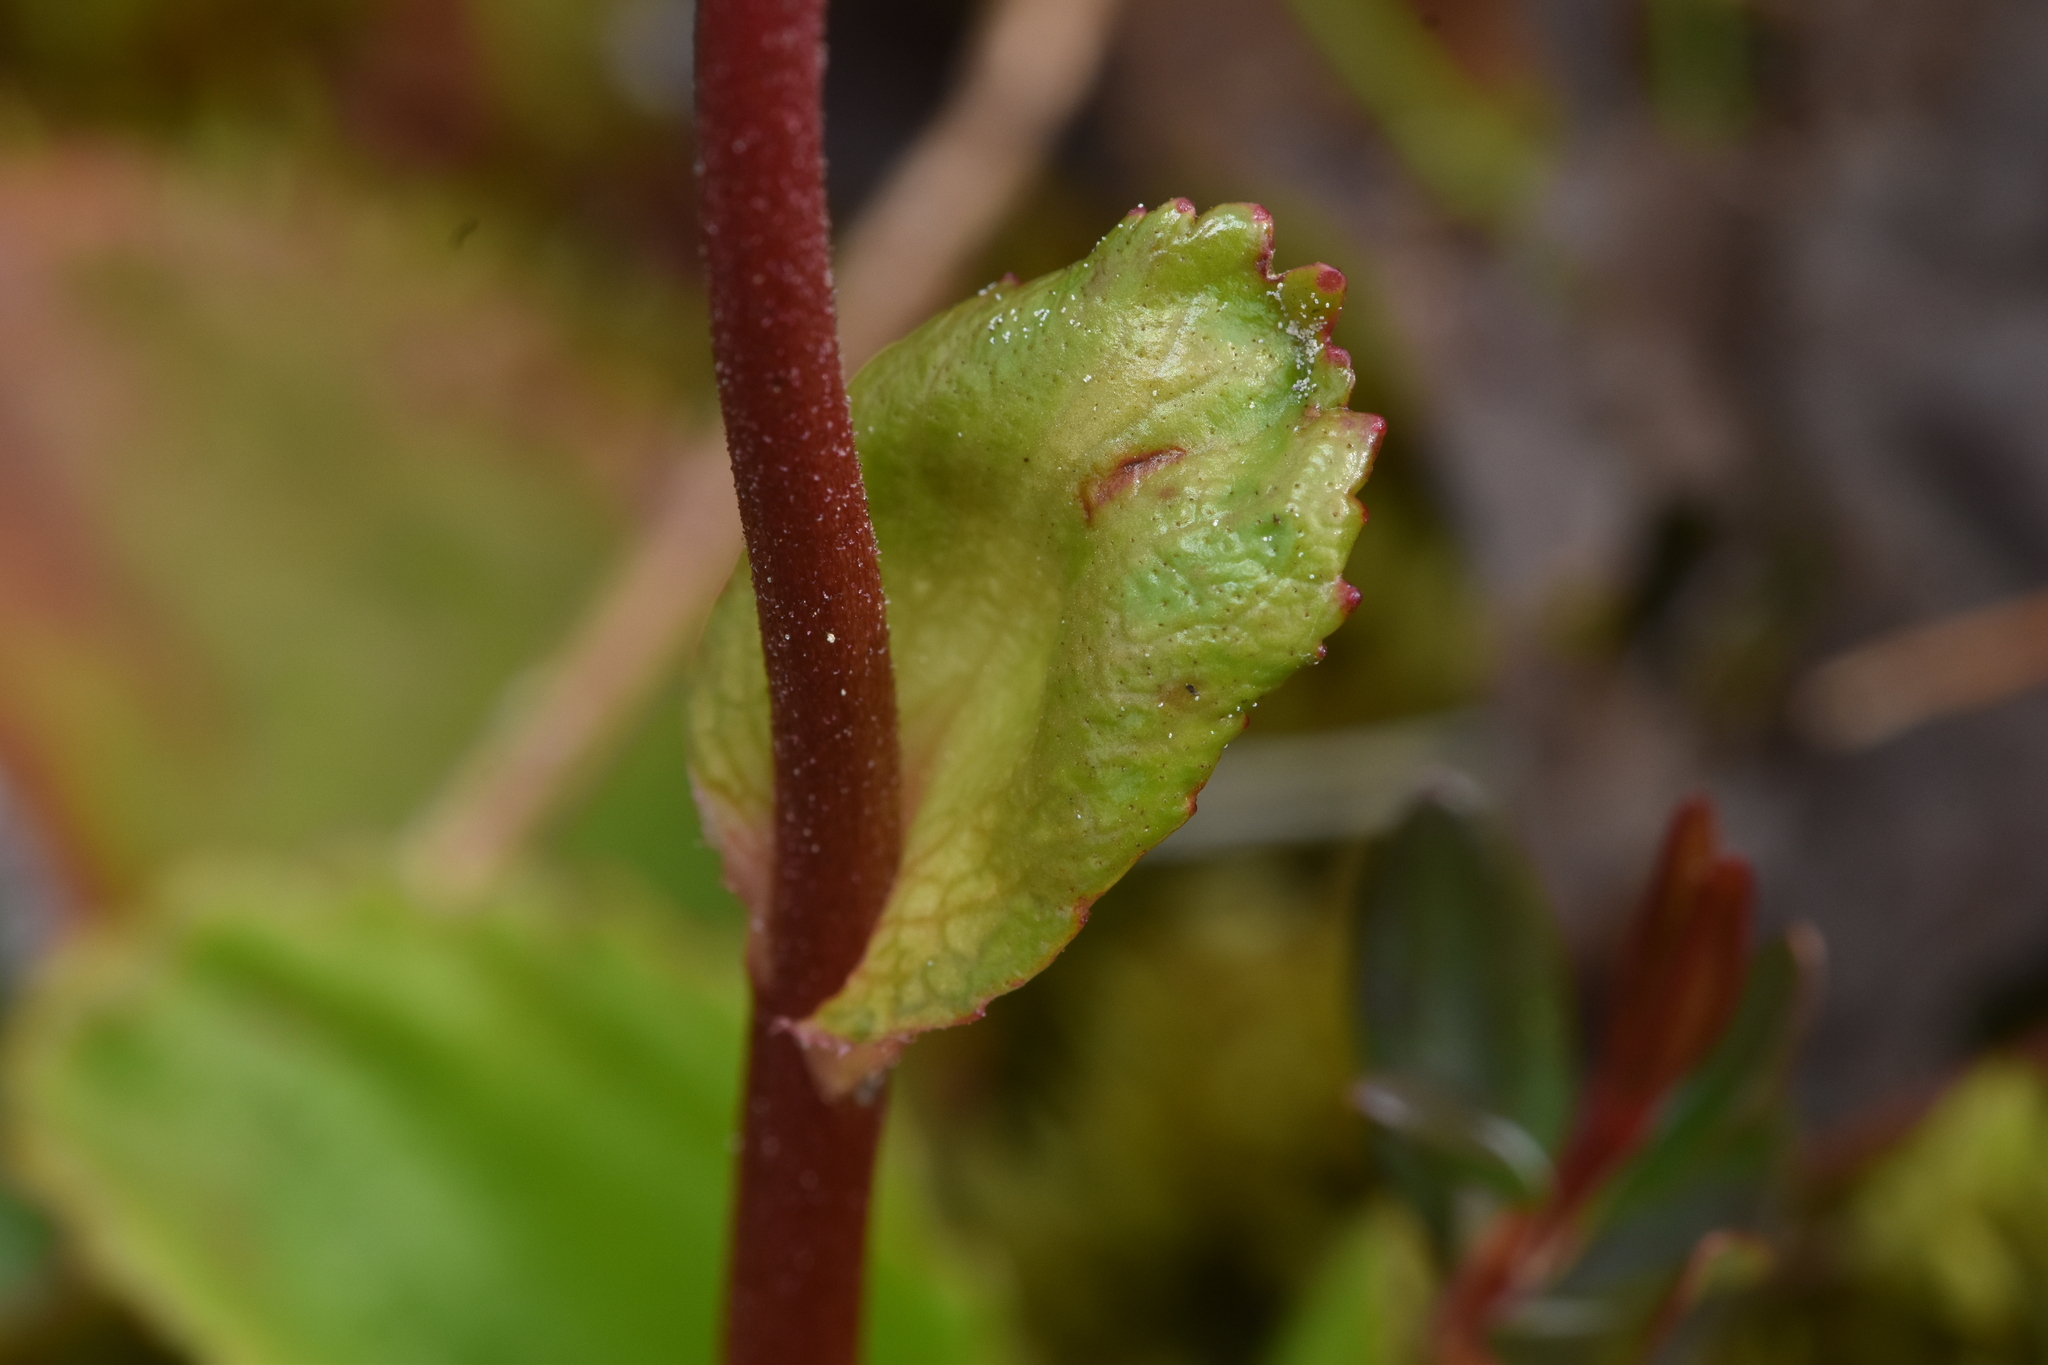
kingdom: Plantae
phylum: Tracheophyta
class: Magnoliopsida
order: Saxifragales
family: Saxifragaceae
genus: Leptarrhena
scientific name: Leptarrhena pyrolifolia
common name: Leatherleaf-saxifrage
